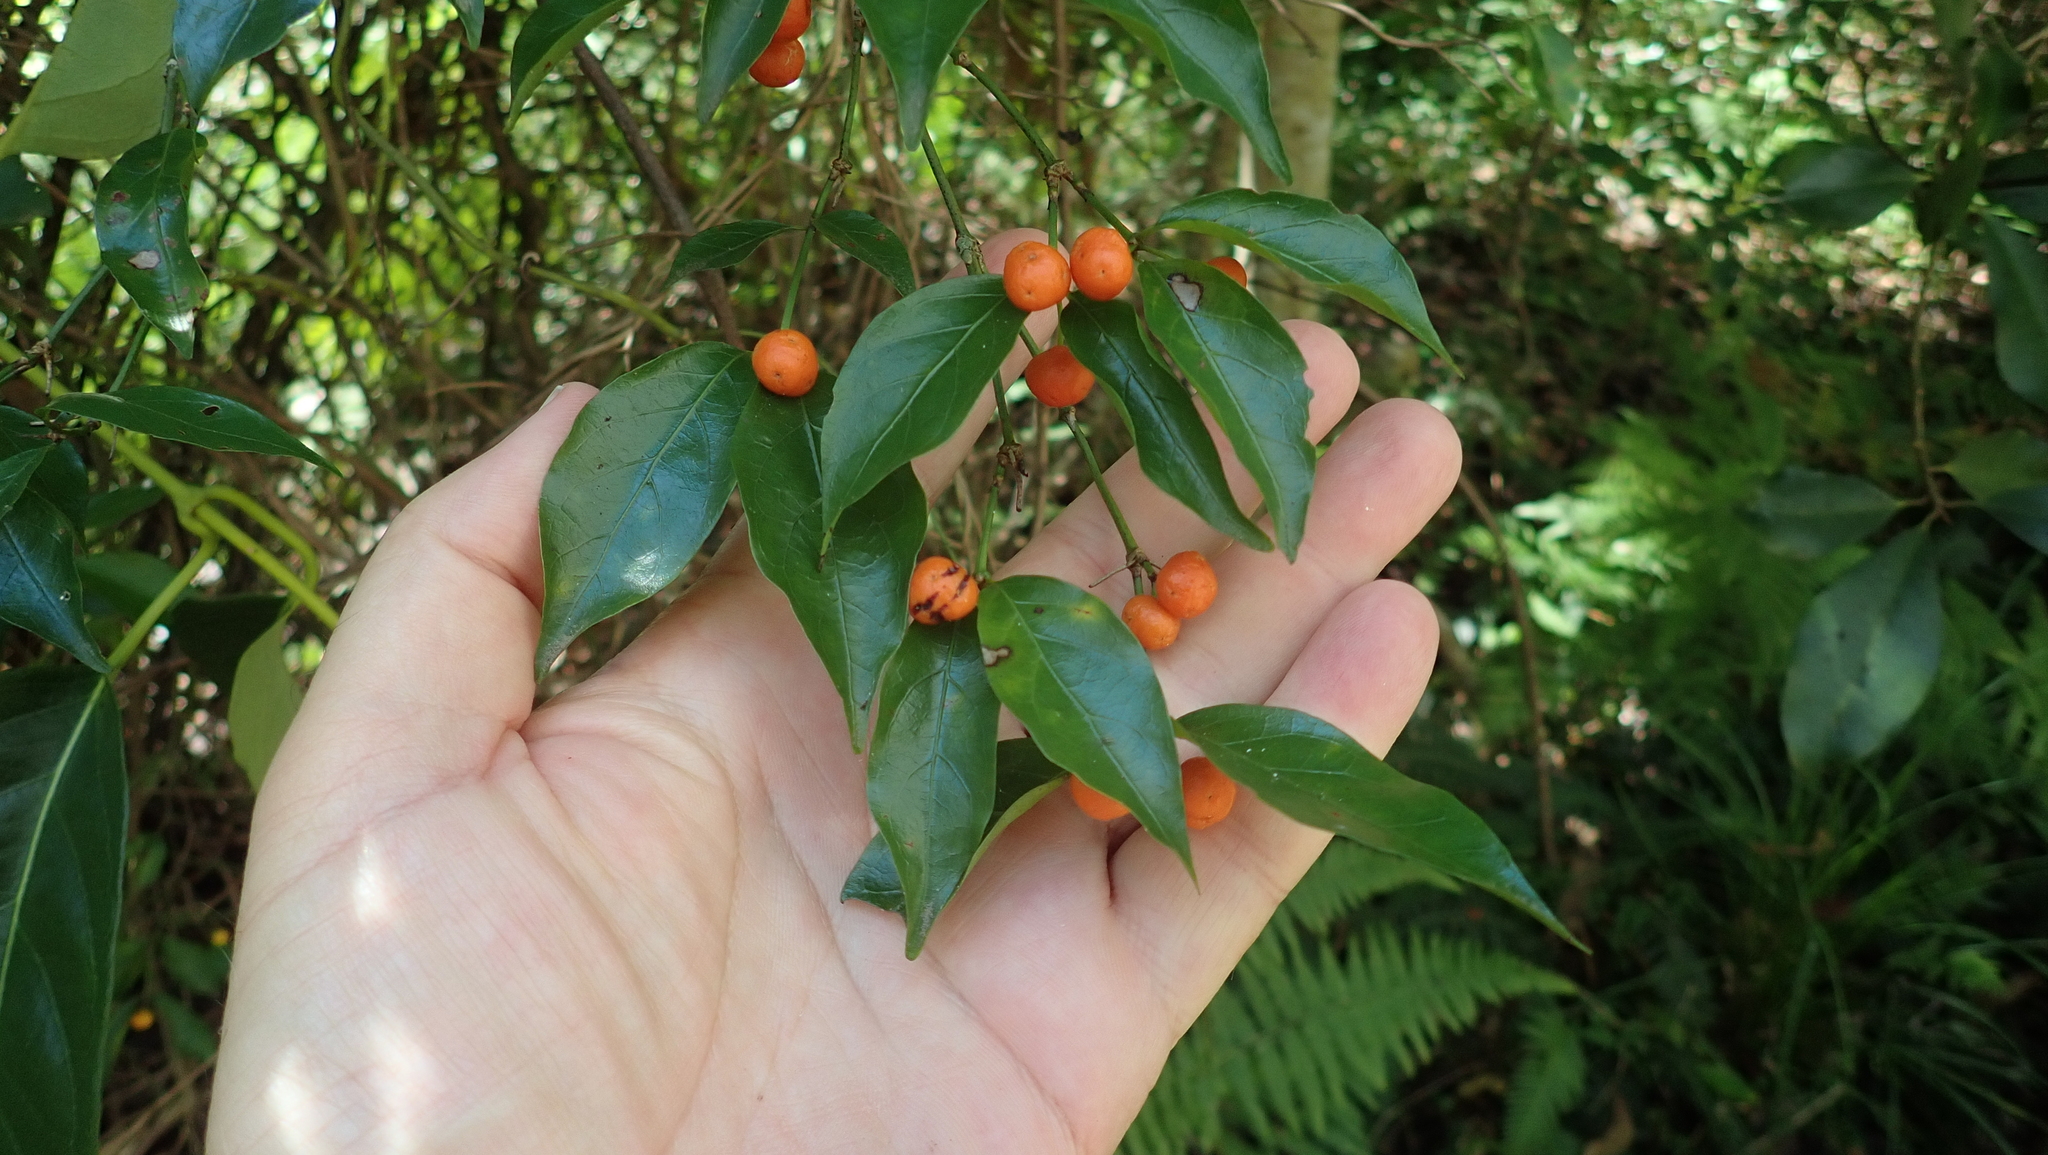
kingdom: Plantae
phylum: Tracheophyta
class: Magnoliopsida
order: Gentianales
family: Rubiaceae
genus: Gynochthodes
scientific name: Gynochthodes jasminoides
